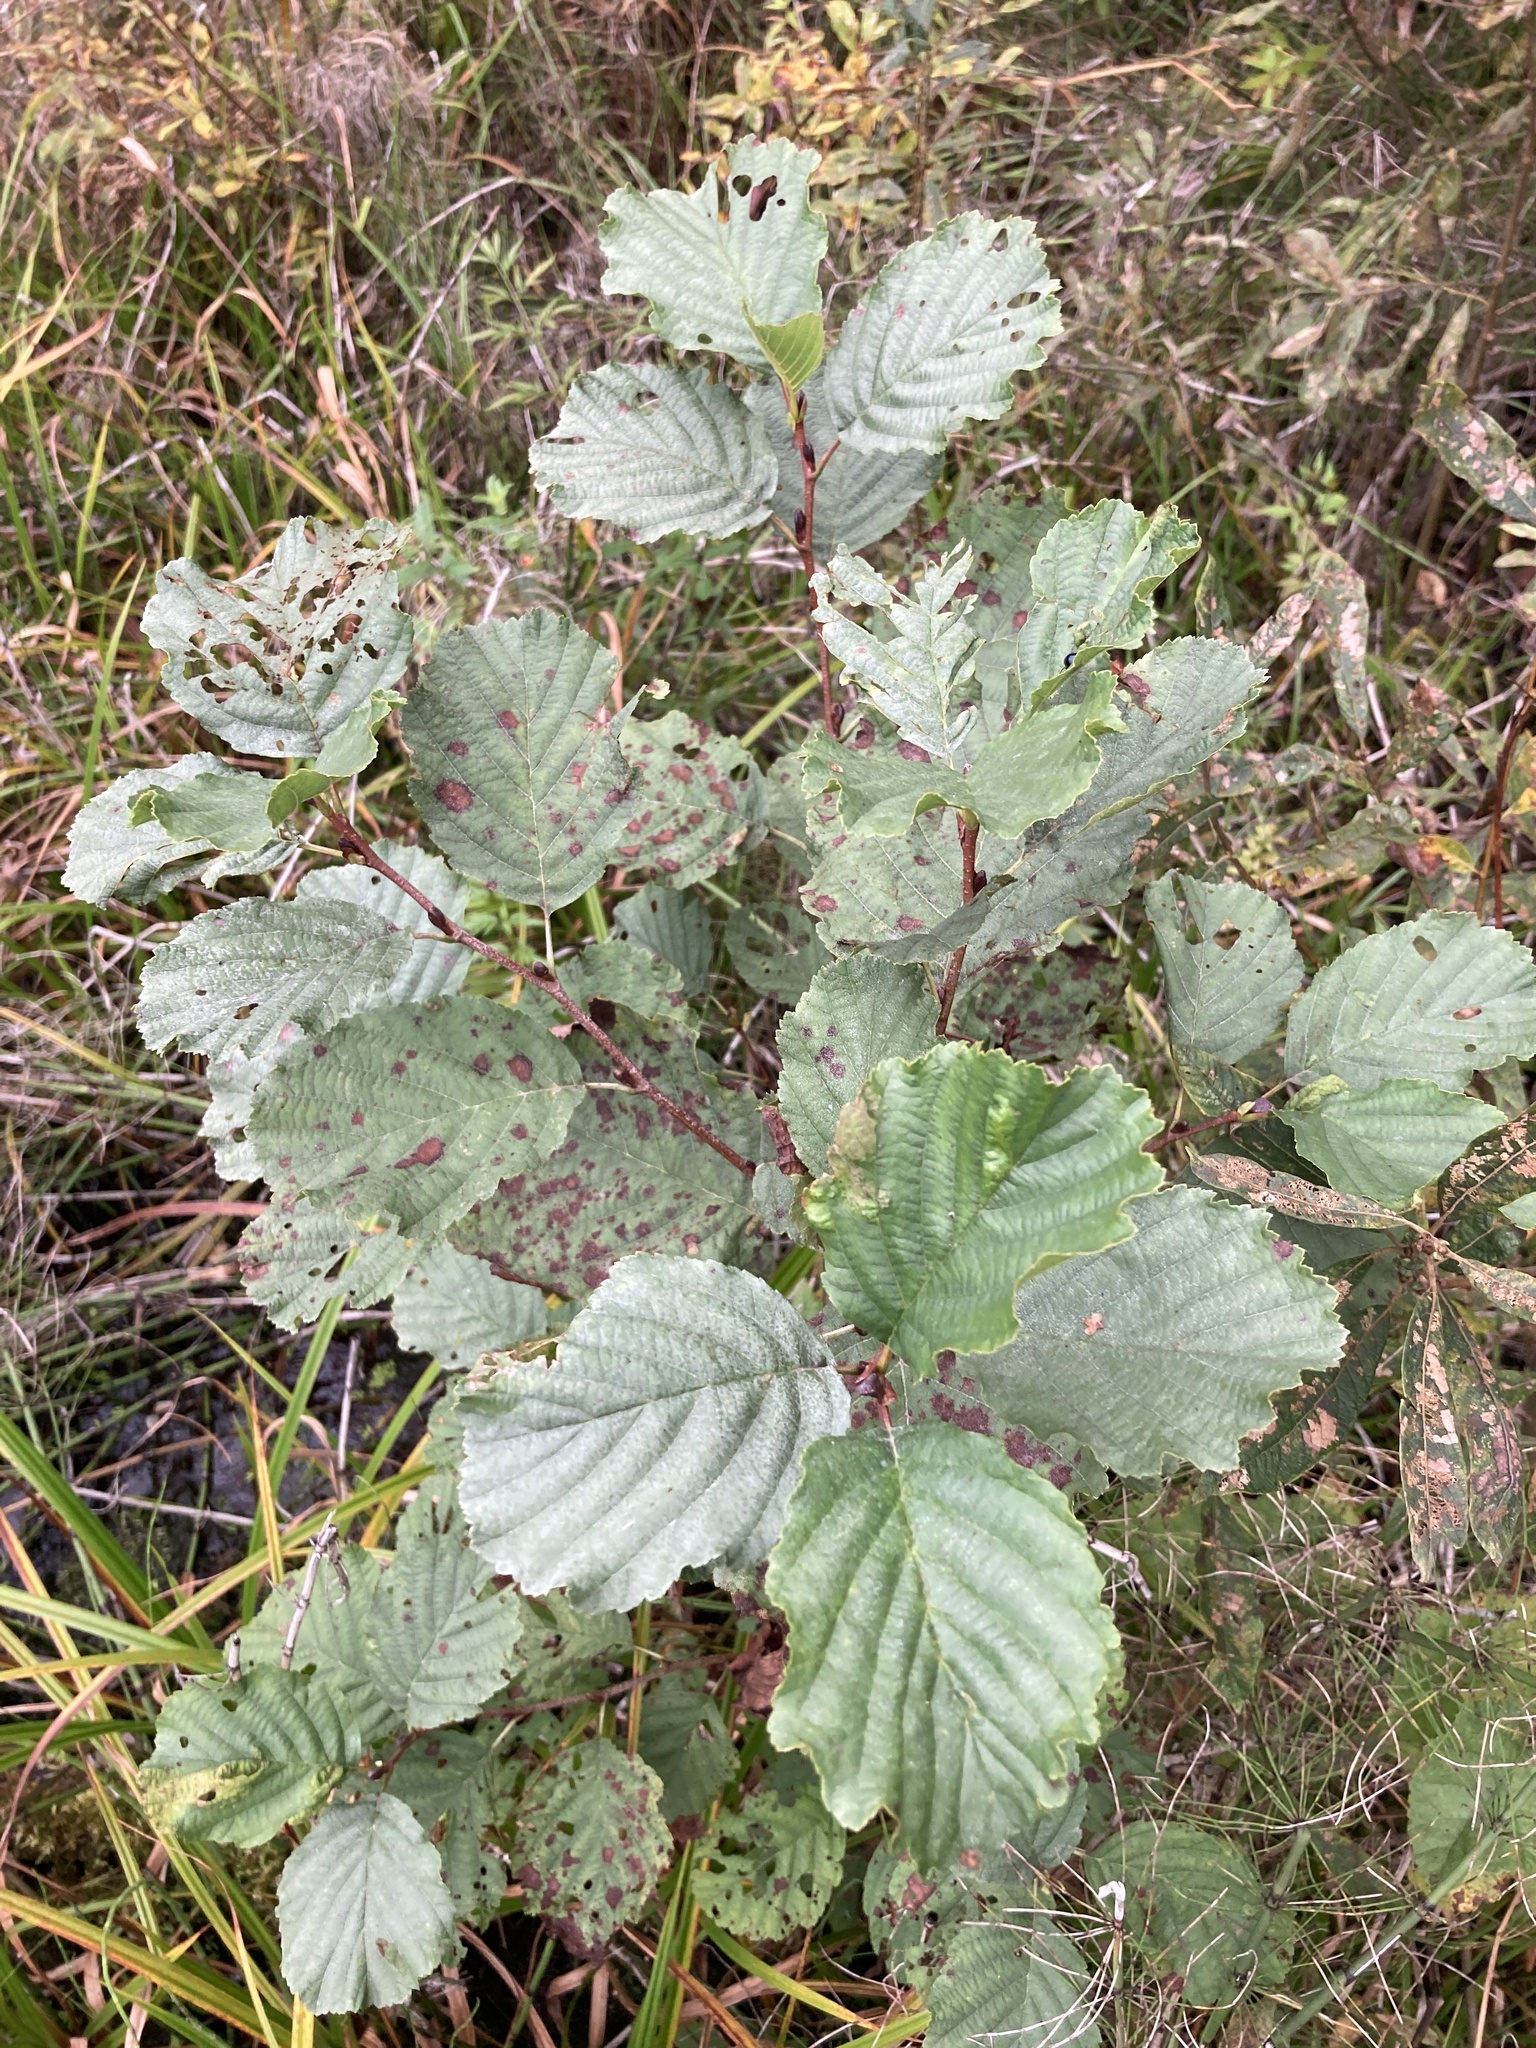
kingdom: Plantae
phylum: Tracheophyta
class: Magnoliopsida
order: Fagales
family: Betulaceae
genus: Alnus
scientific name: Alnus glutinosa
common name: Black alder
